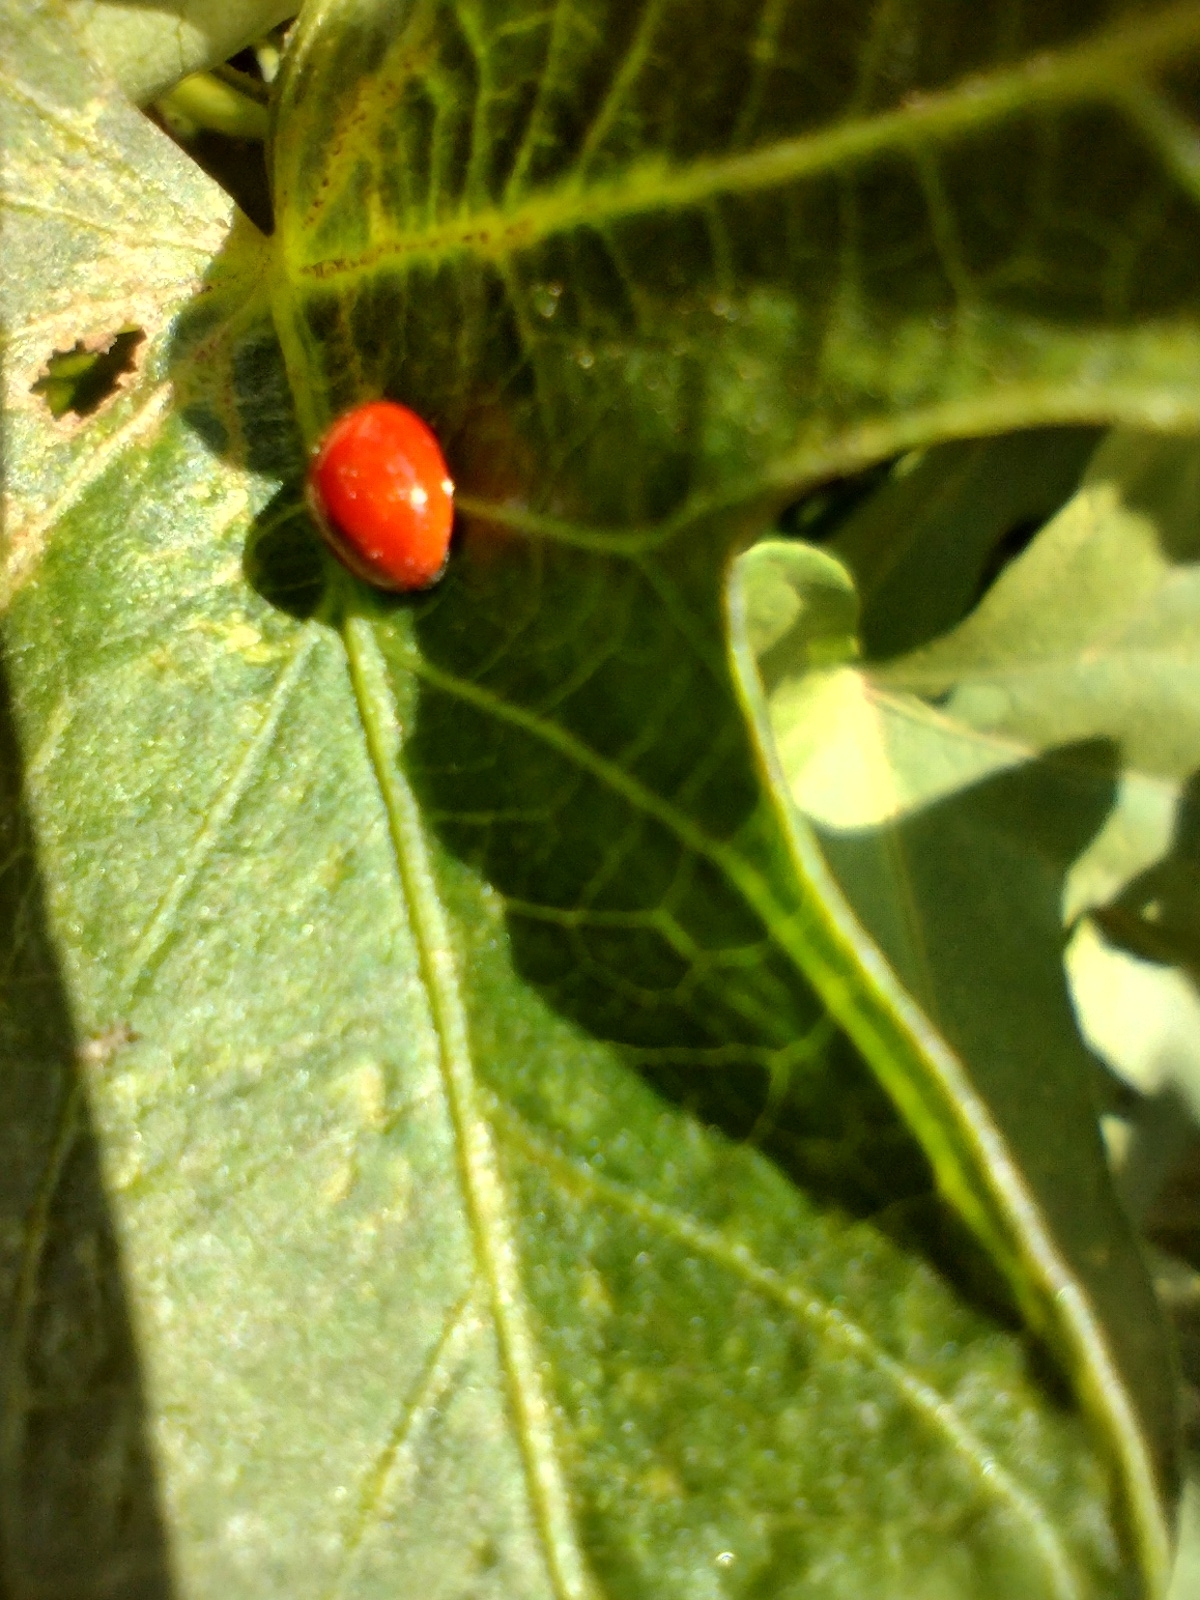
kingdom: Animalia
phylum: Arthropoda
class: Insecta
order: Coleoptera
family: Coccinellidae
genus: Cycloneda
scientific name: Cycloneda
